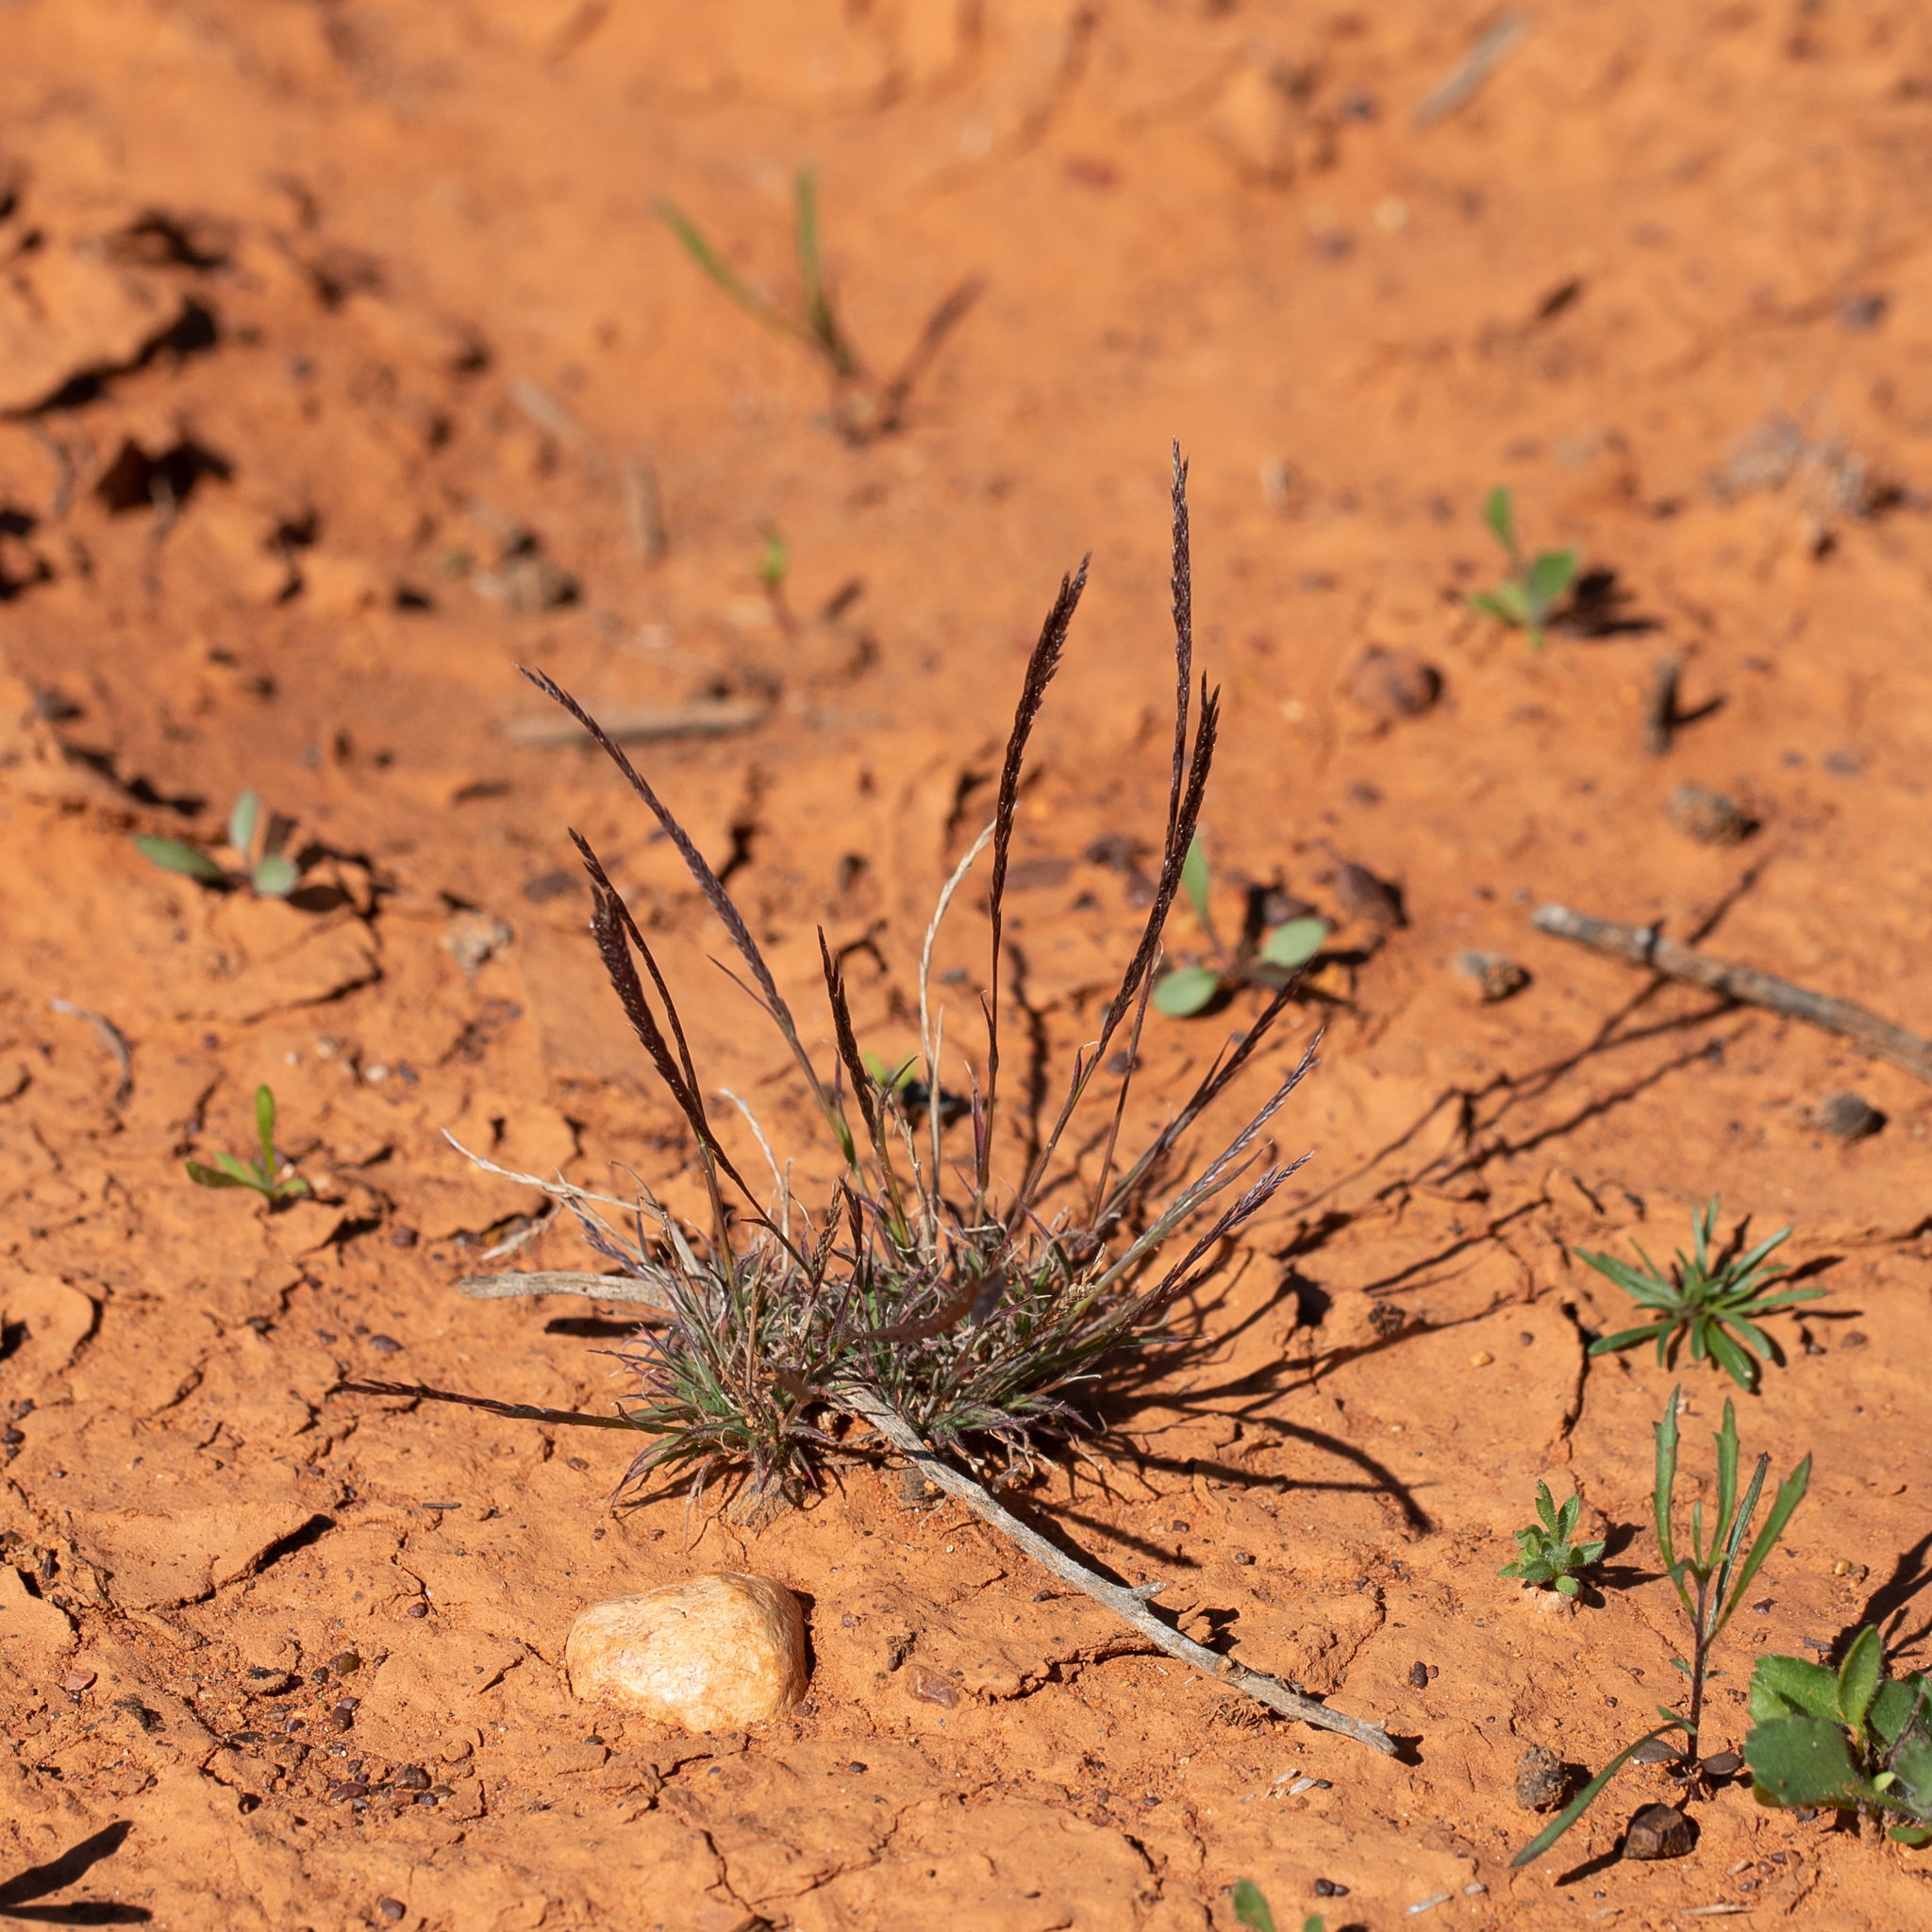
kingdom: Plantae
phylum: Tracheophyta
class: Liliopsida
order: Poales
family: Poaceae
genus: Tripogonella
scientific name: Tripogonella loliiformis
